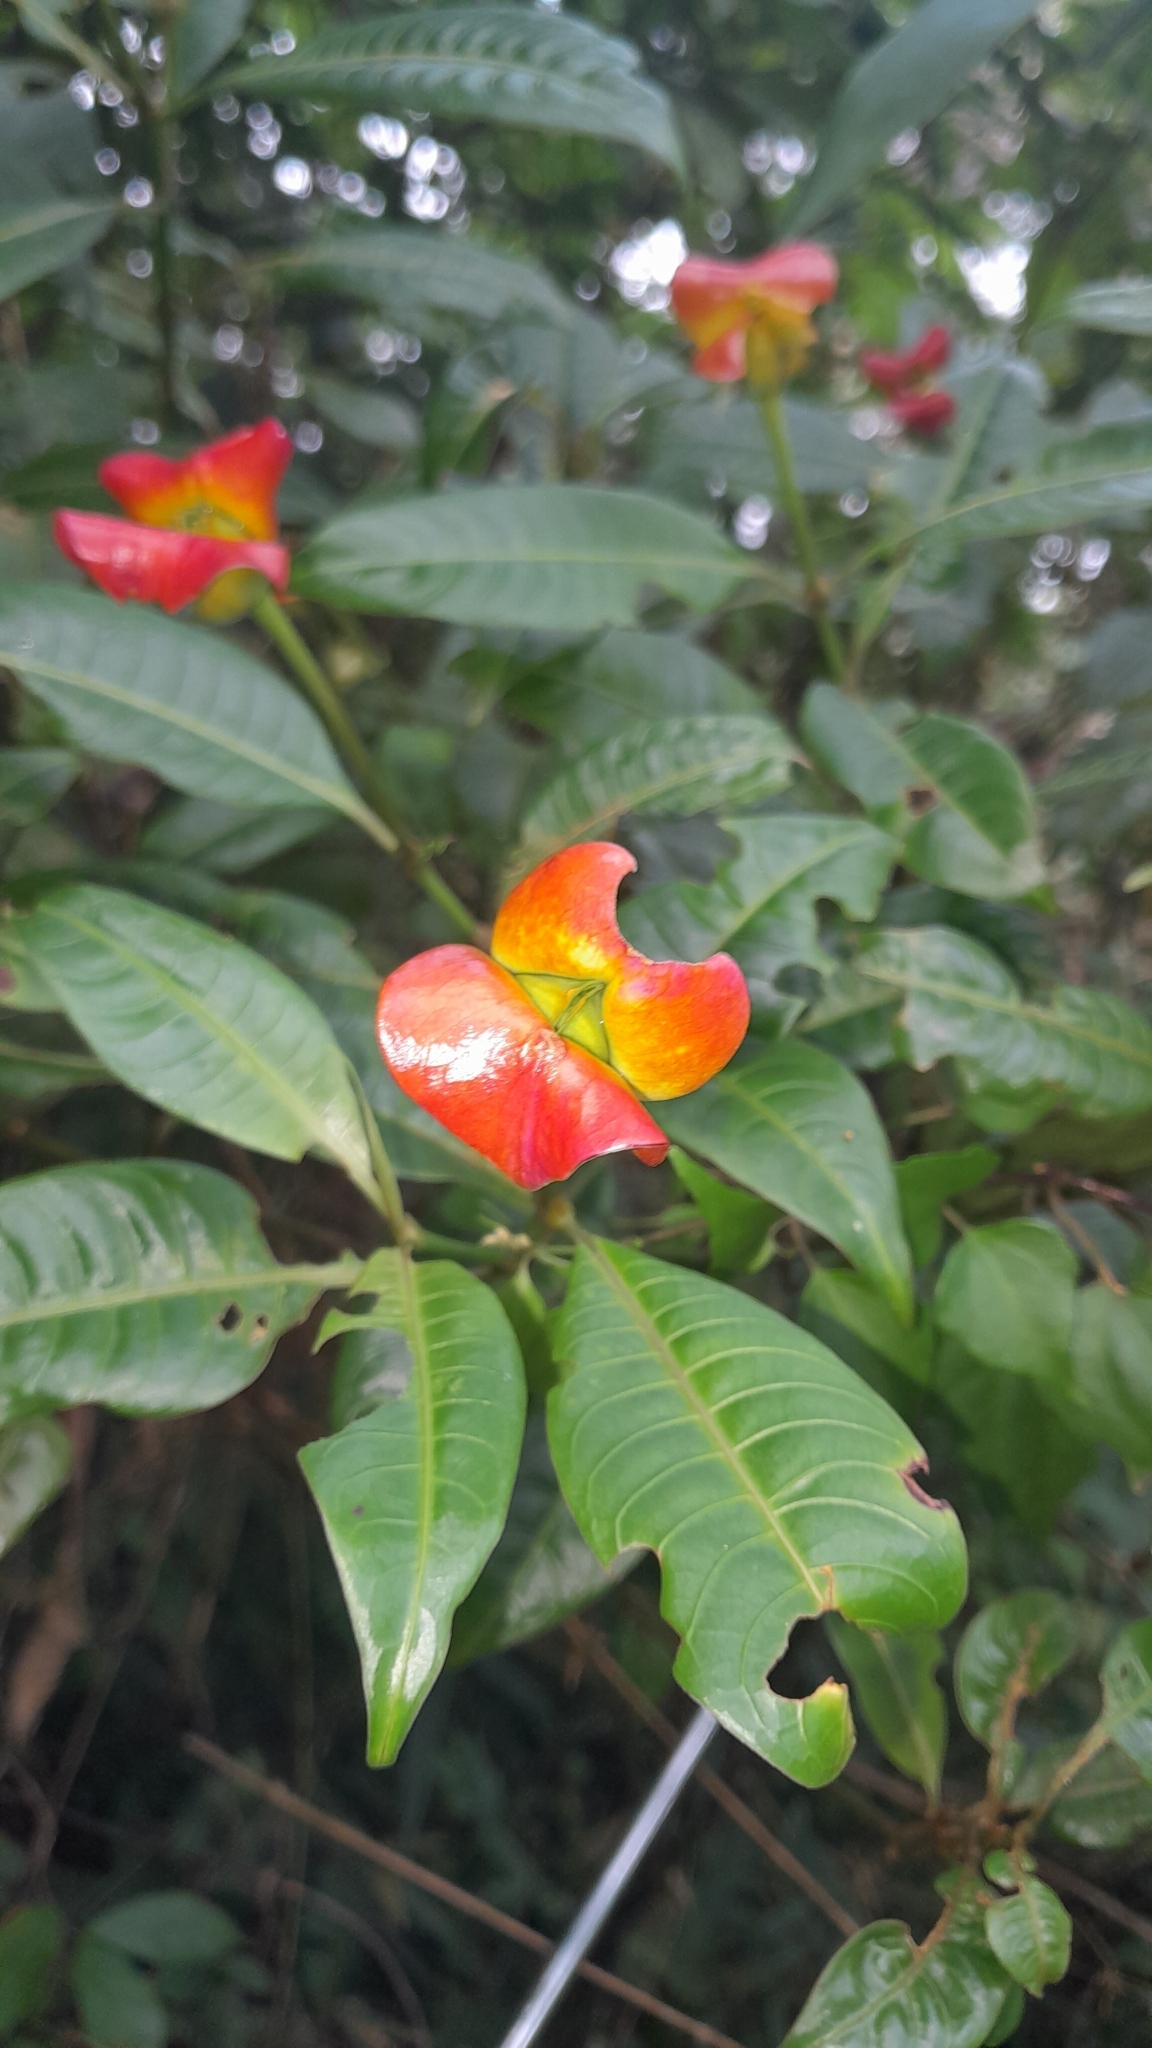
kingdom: Plantae
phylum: Tracheophyta
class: Magnoliopsida
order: Gentianales
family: Rubiaceae
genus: Palicourea
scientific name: Palicourea tomentosa
